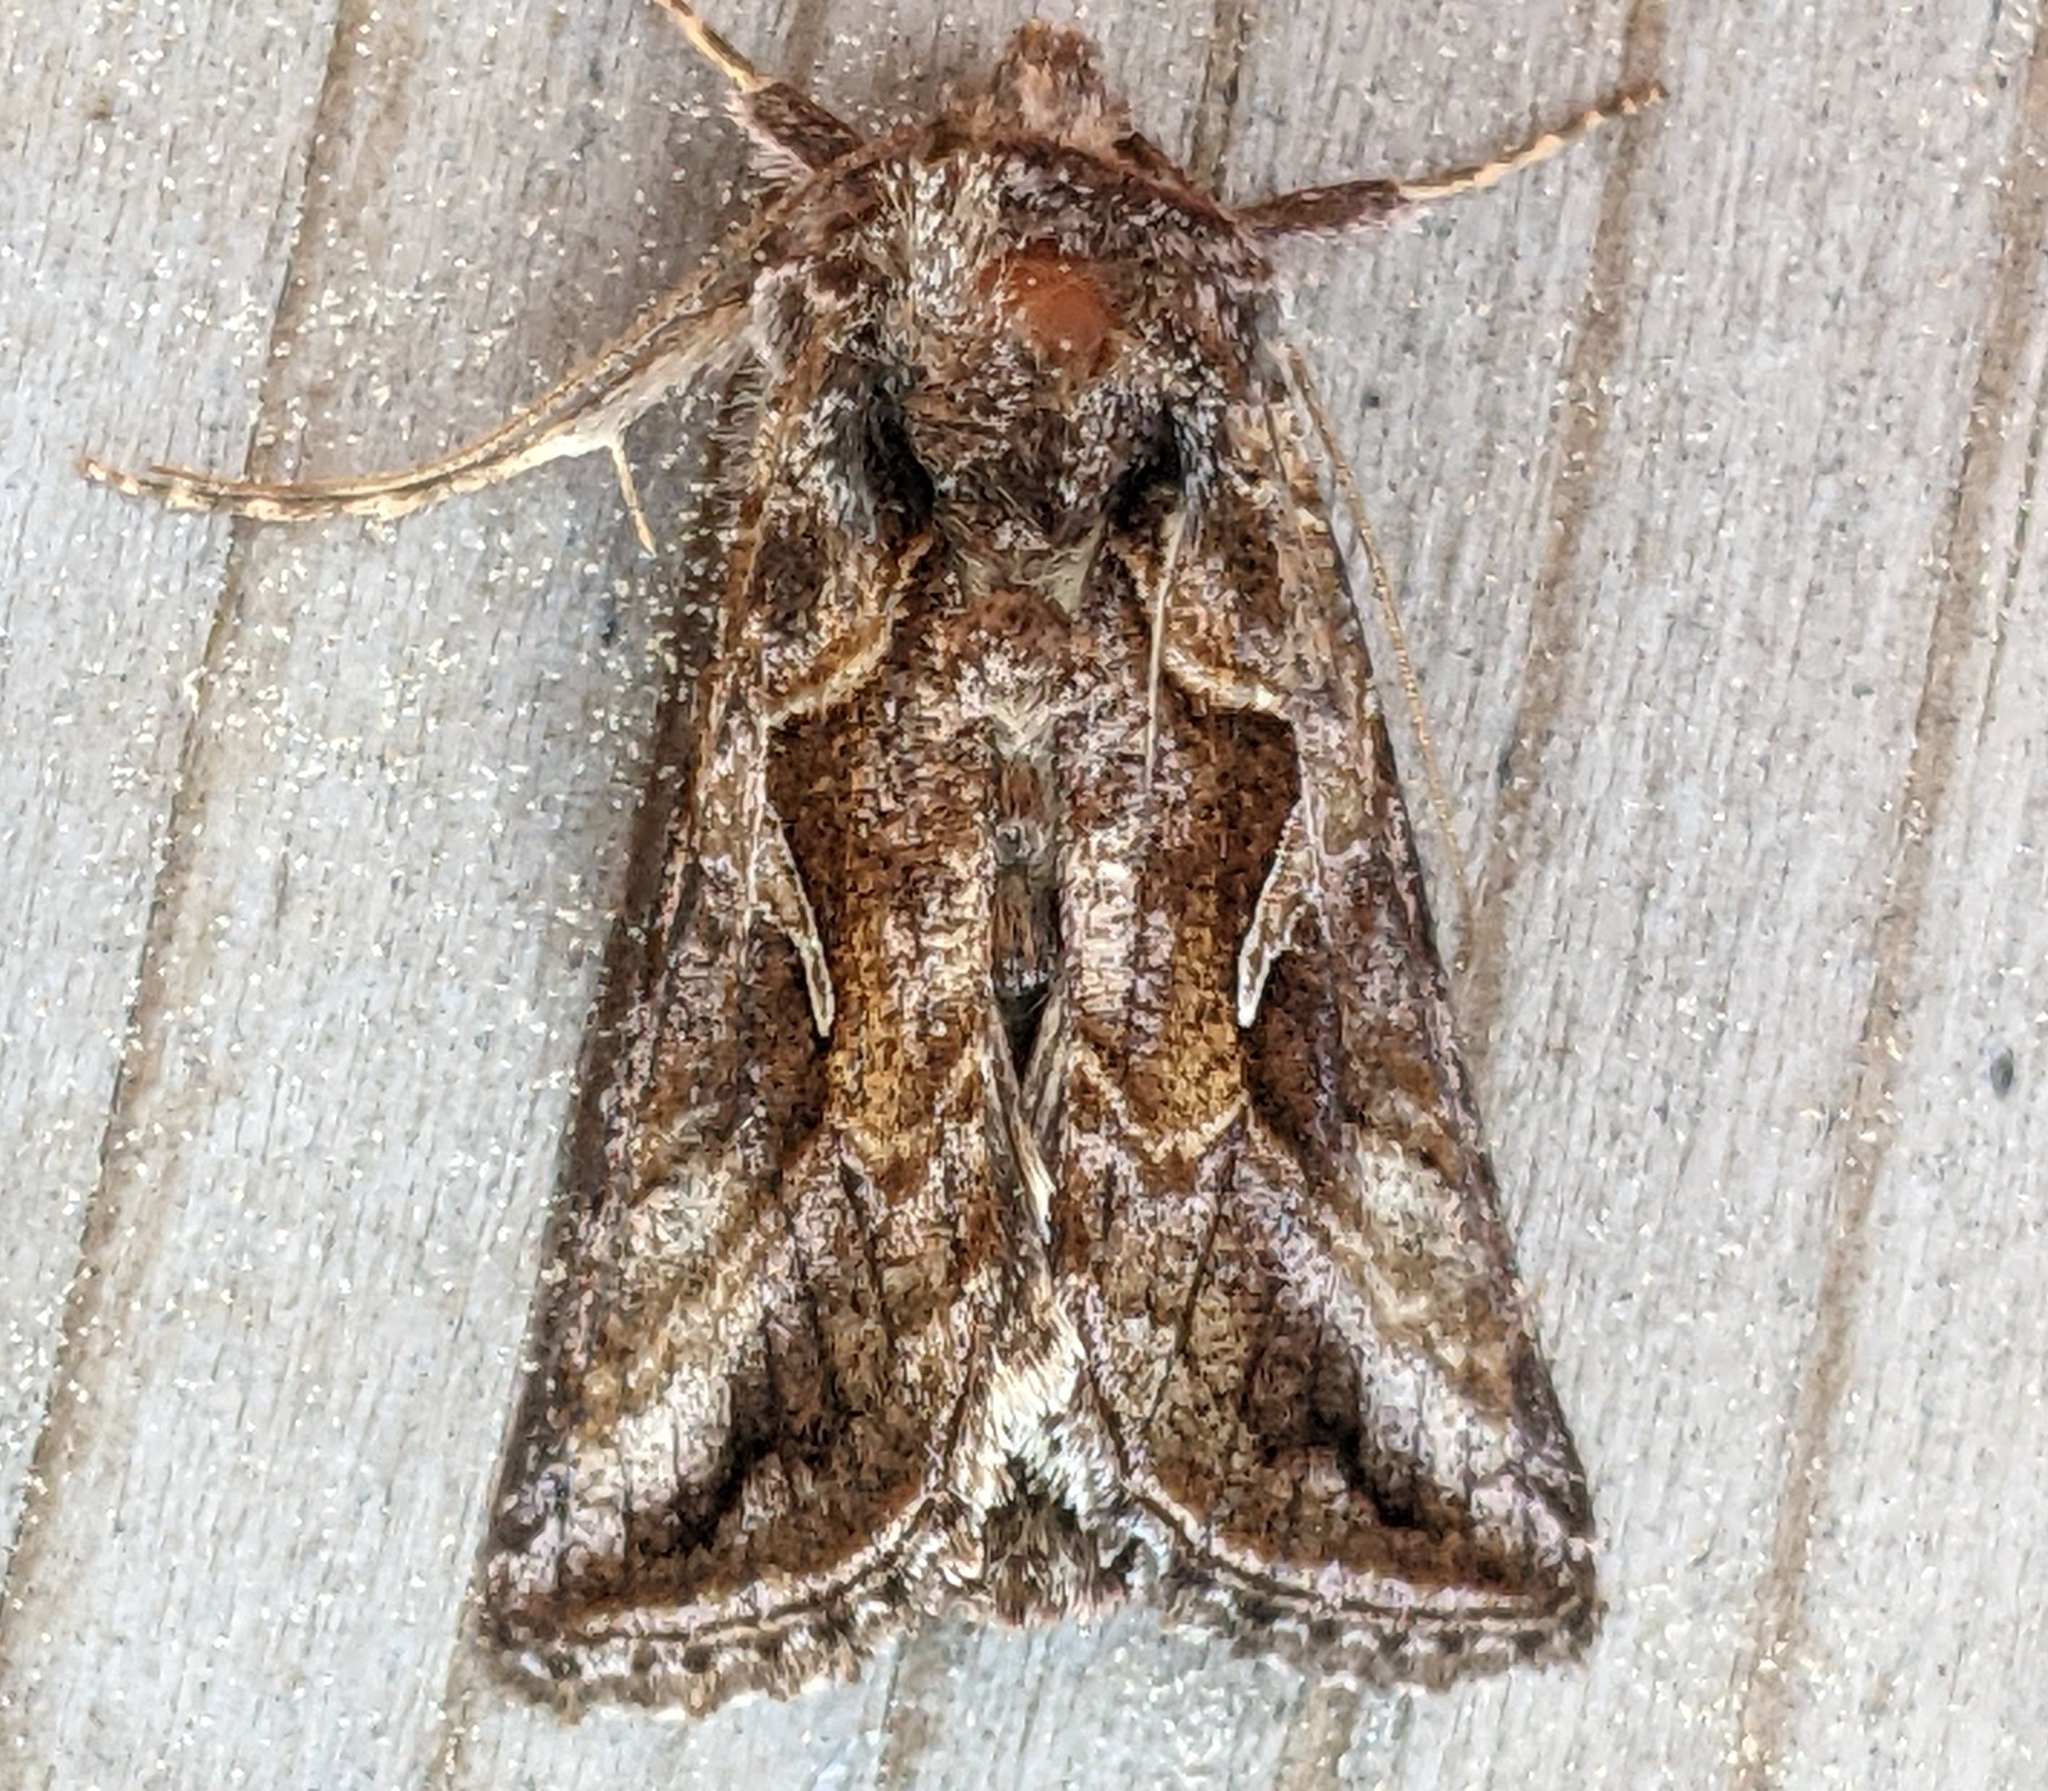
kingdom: Animalia
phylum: Arthropoda
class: Insecta
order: Lepidoptera
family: Noctuidae
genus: Autographa
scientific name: Autographa rubidus
